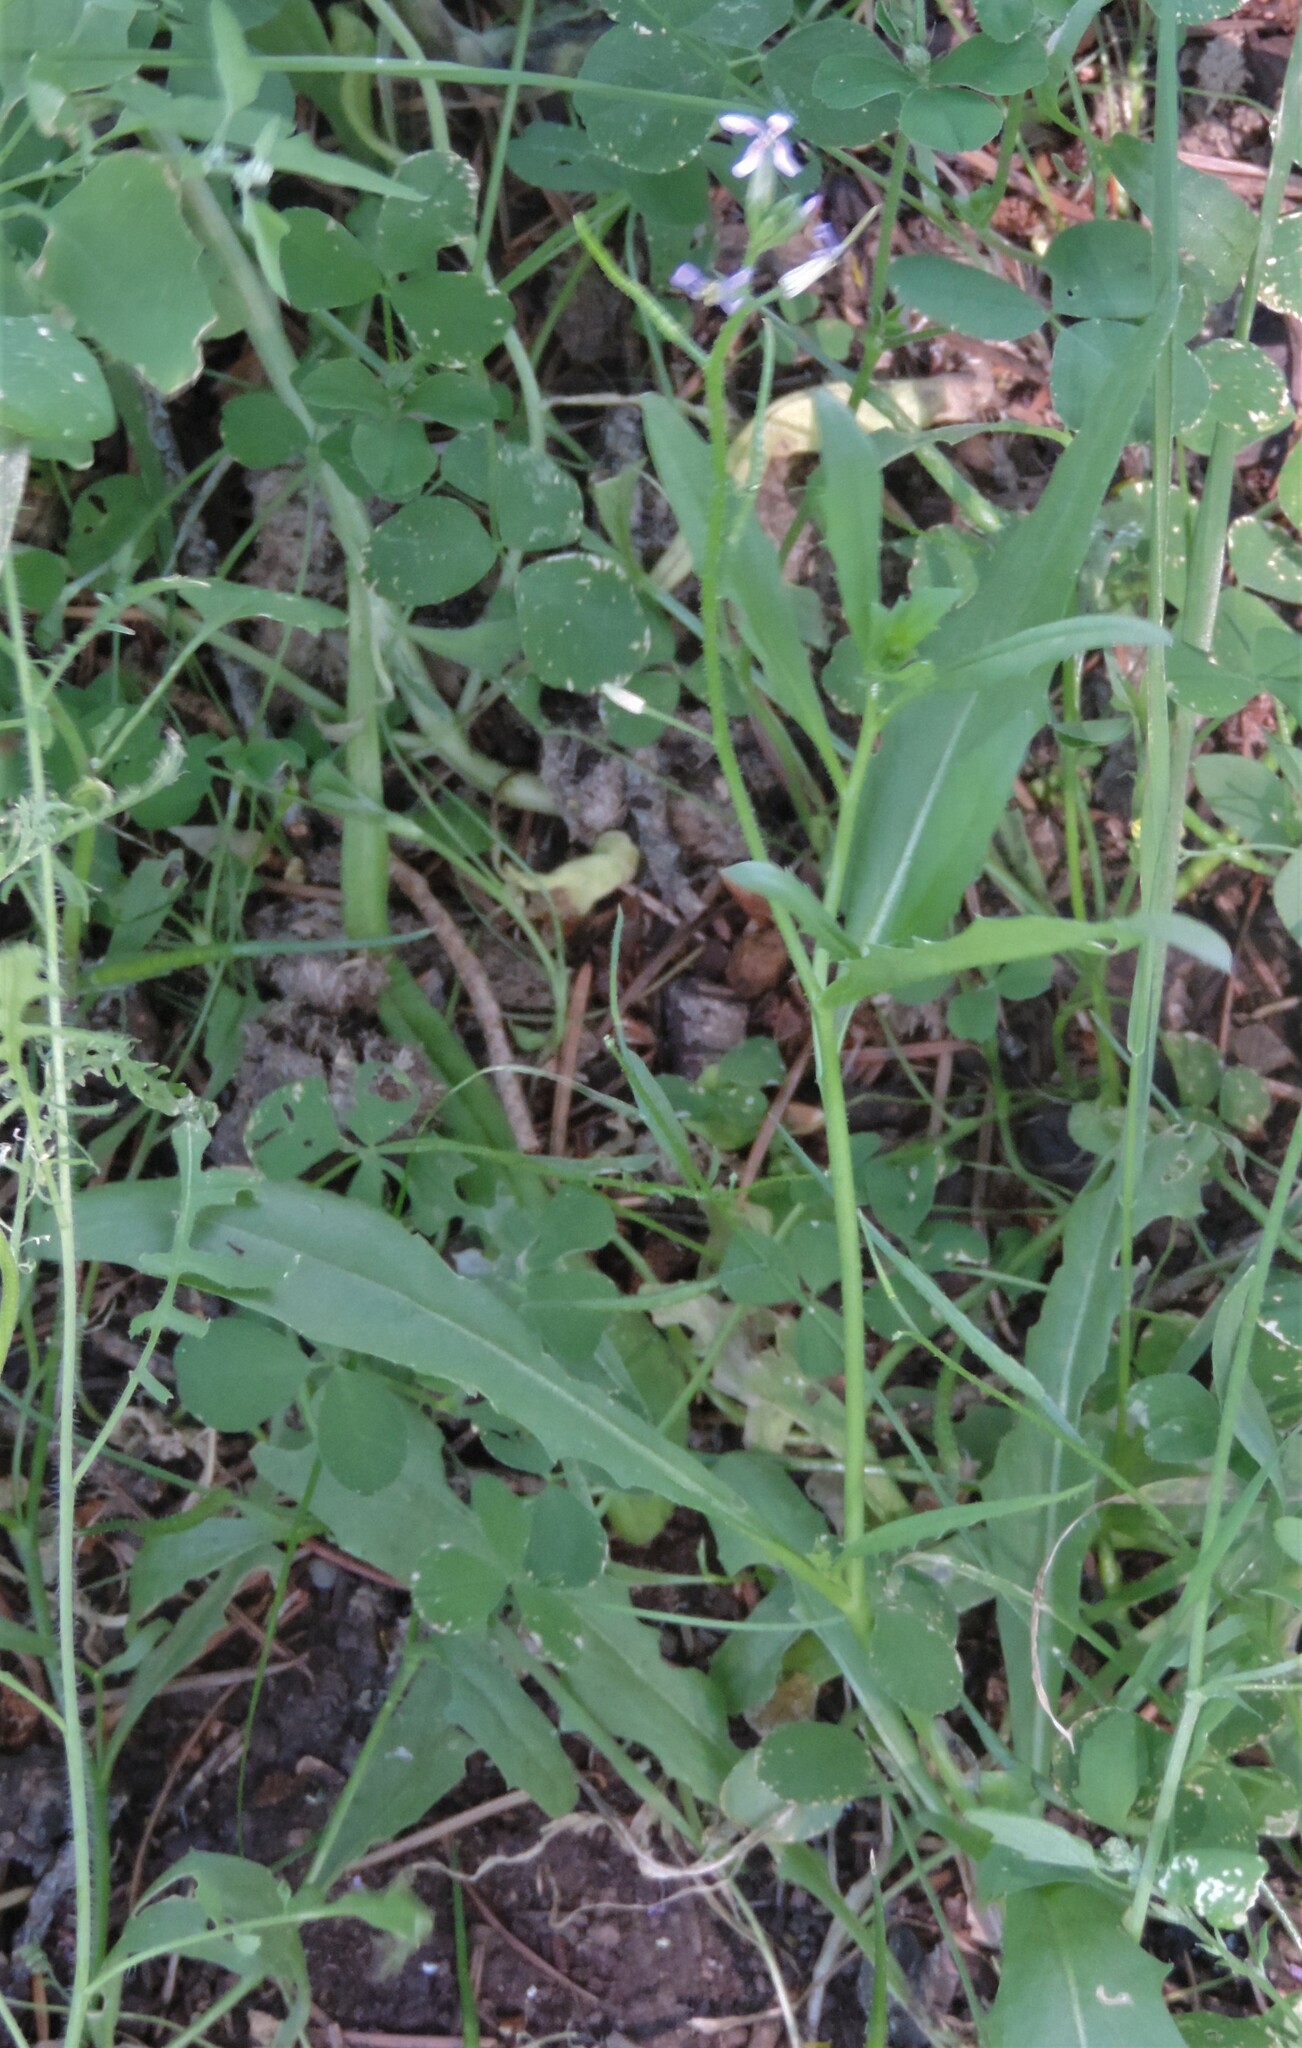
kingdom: Plantae
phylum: Tracheophyta
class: Magnoliopsida
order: Brassicales
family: Brassicaceae
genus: Chorispora
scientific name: Chorispora tenella
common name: Crossflower
